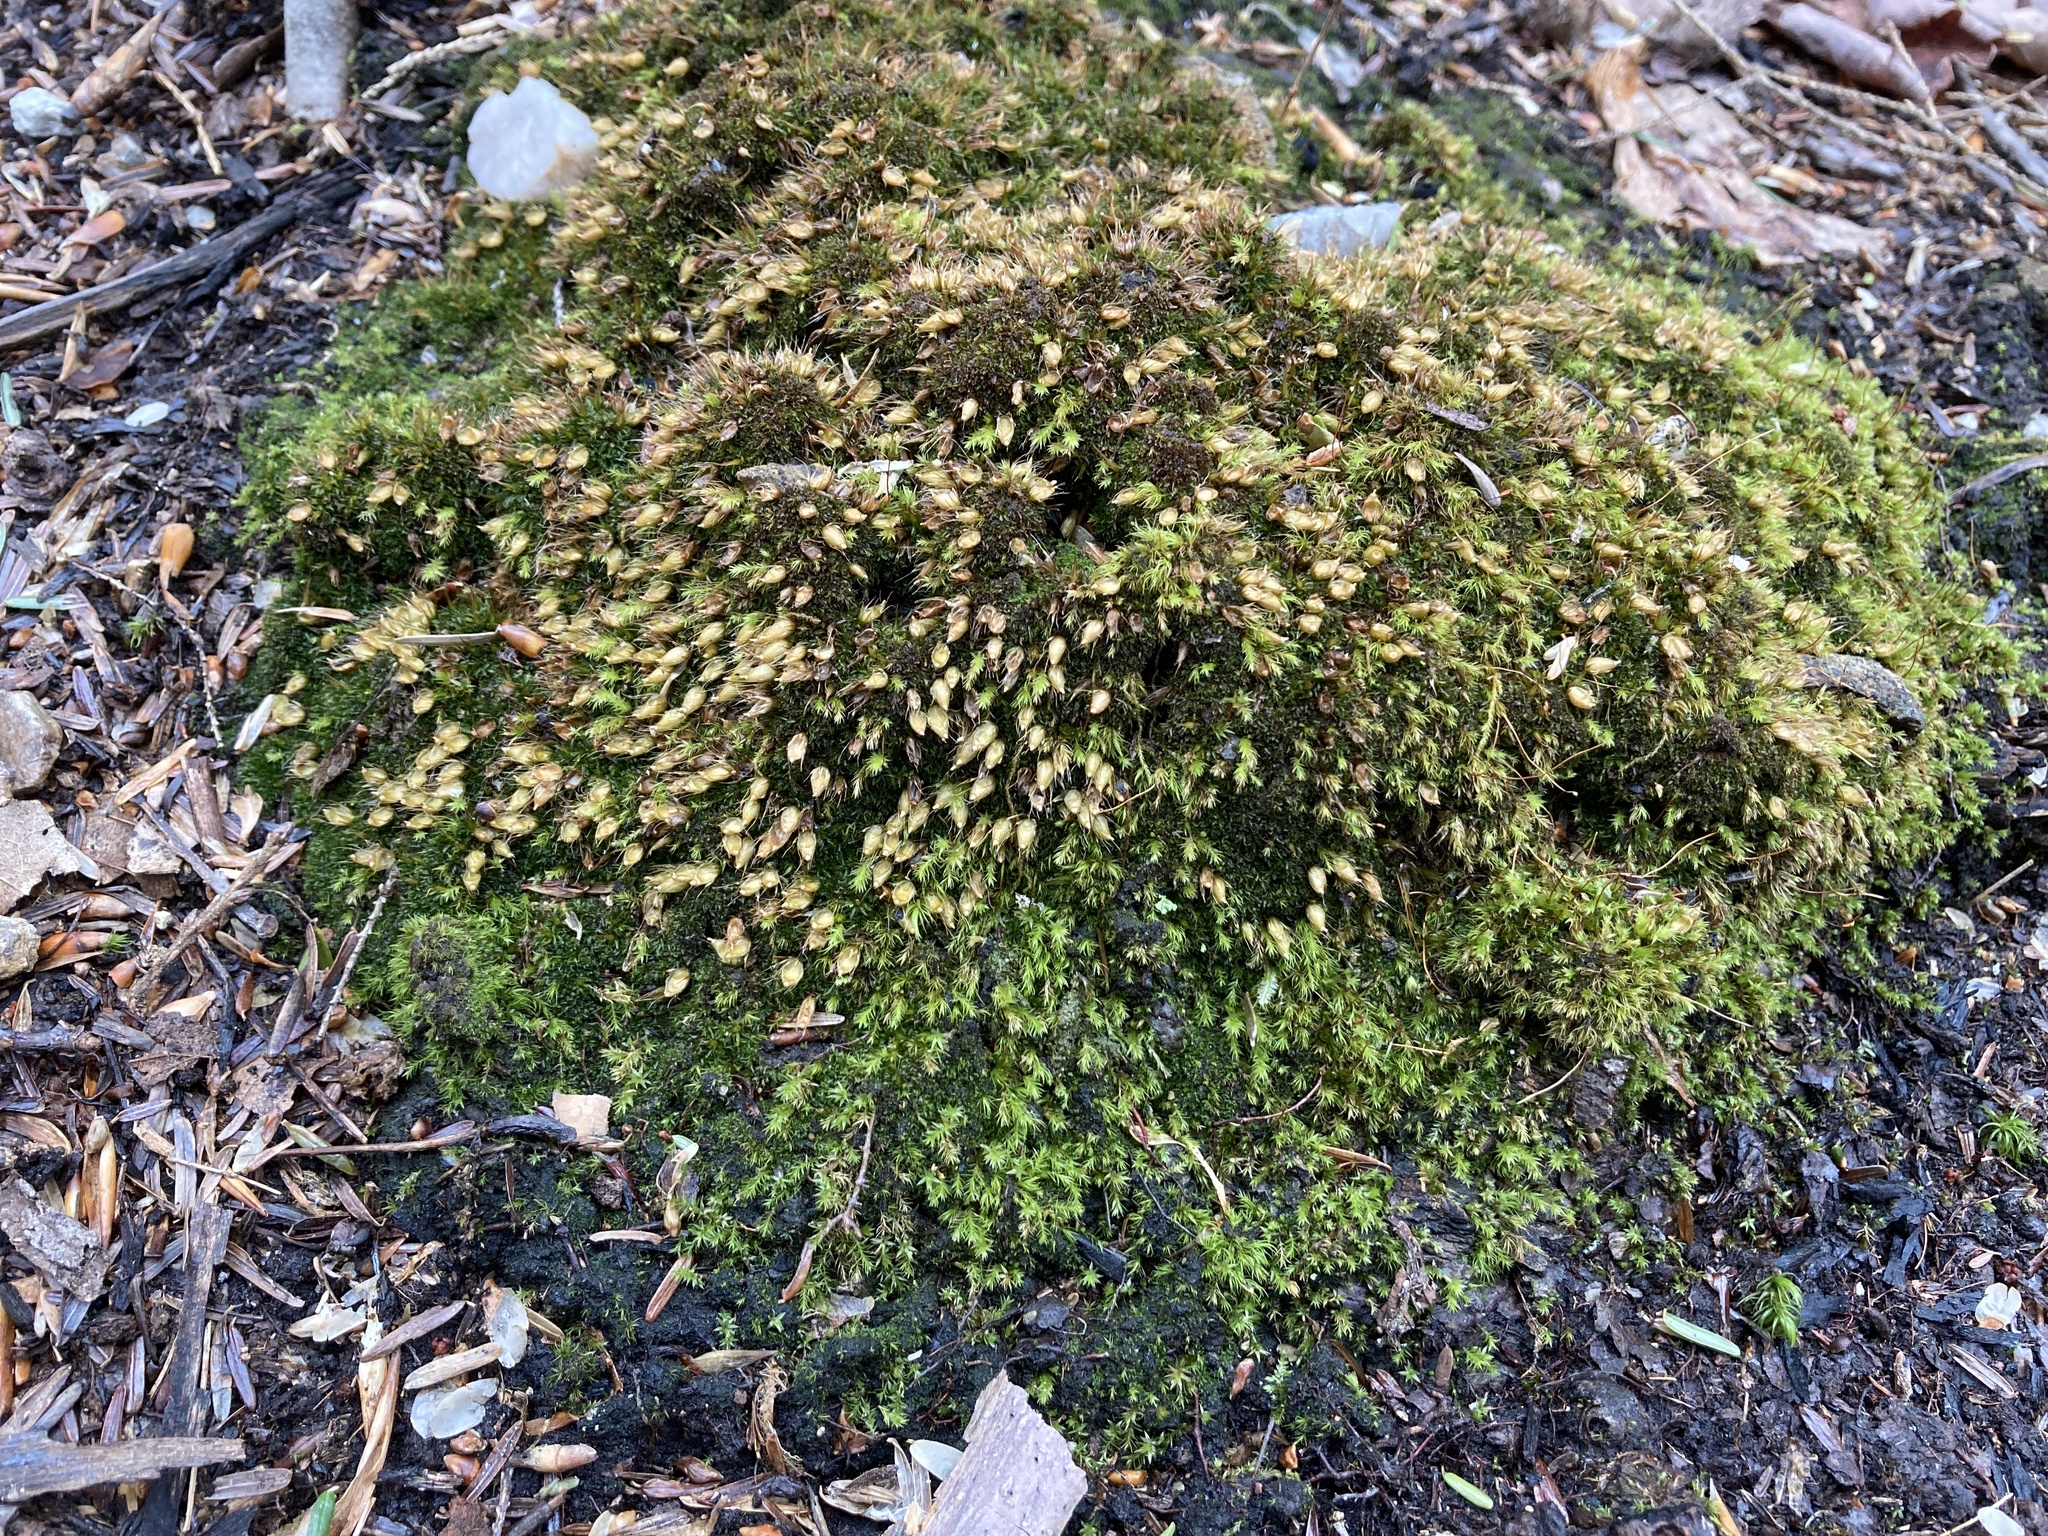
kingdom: Plantae
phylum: Bryophyta
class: Bryopsida
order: Diphysciales
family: Diphysciaceae
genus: Diphyscium
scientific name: Diphyscium foliosum
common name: Nut moss
